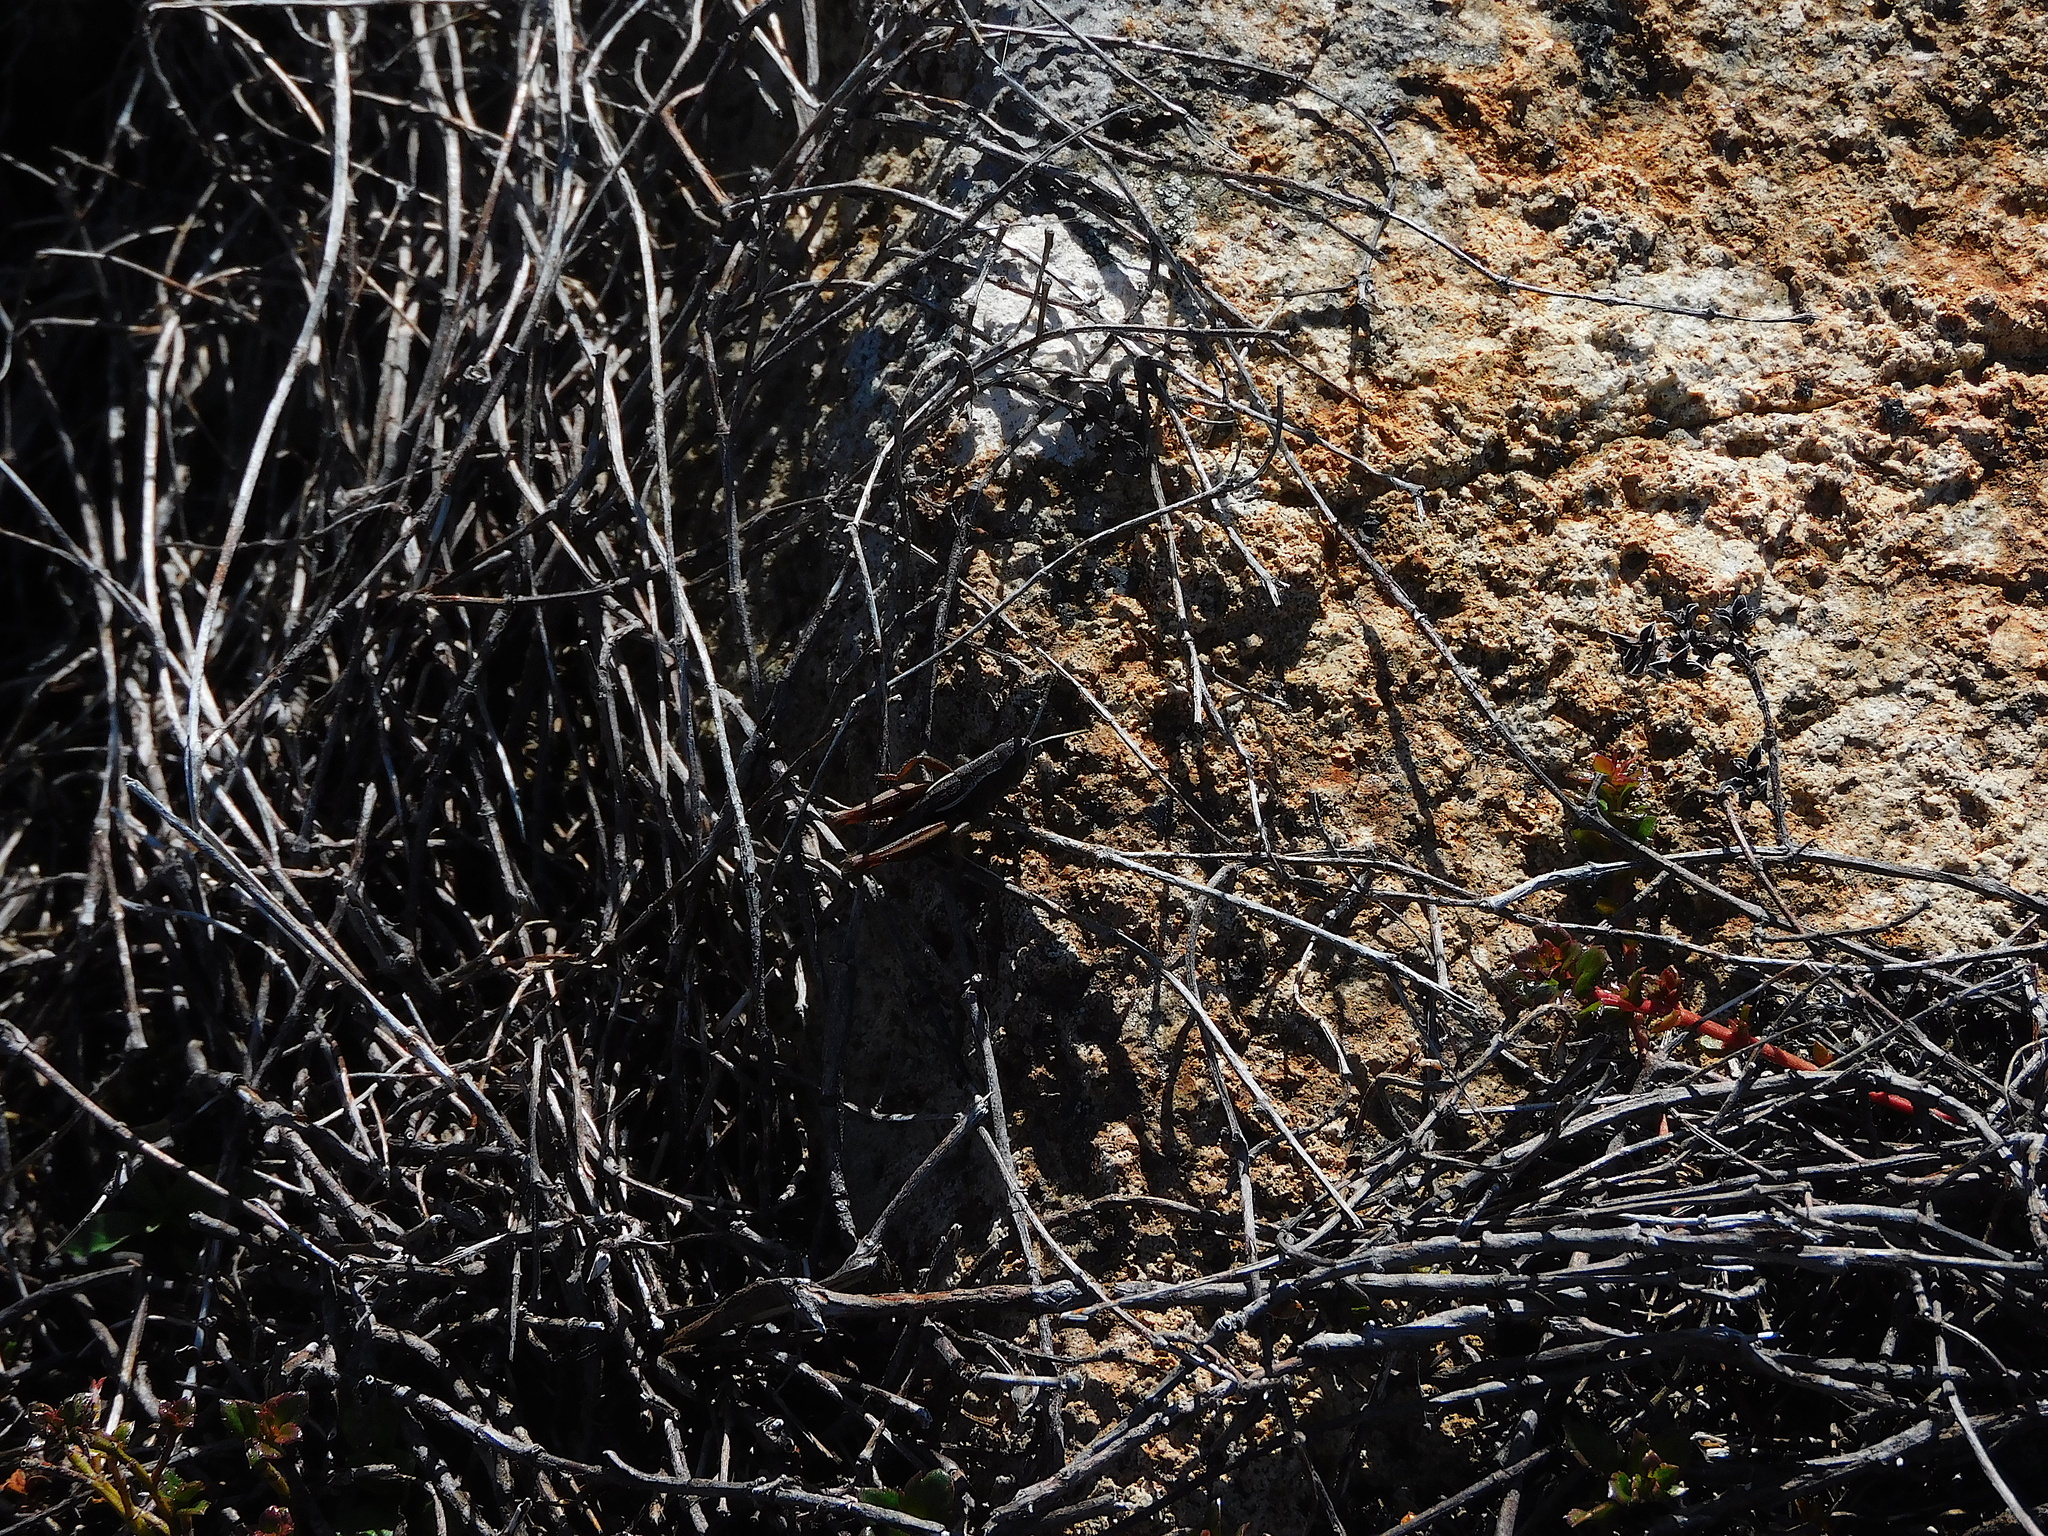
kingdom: Animalia
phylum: Arthropoda
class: Insecta
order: Orthoptera
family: Acrididae
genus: Russalpia
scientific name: Russalpia albertisi
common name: Tassie hopper
